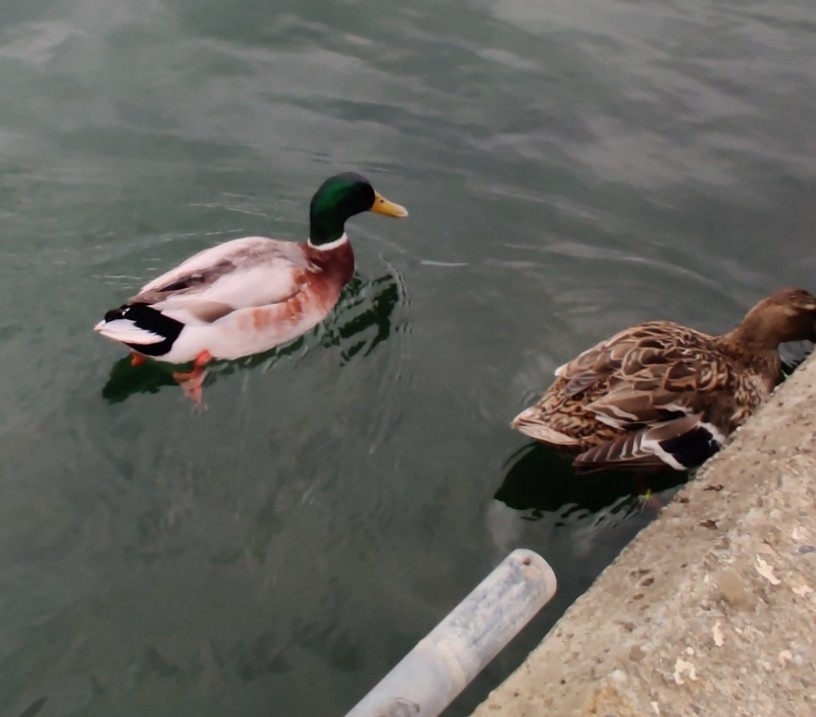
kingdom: Animalia
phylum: Chordata
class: Aves
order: Anseriformes
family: Anatidae
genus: Anas
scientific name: Anas platyrhynchos
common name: Mallard
